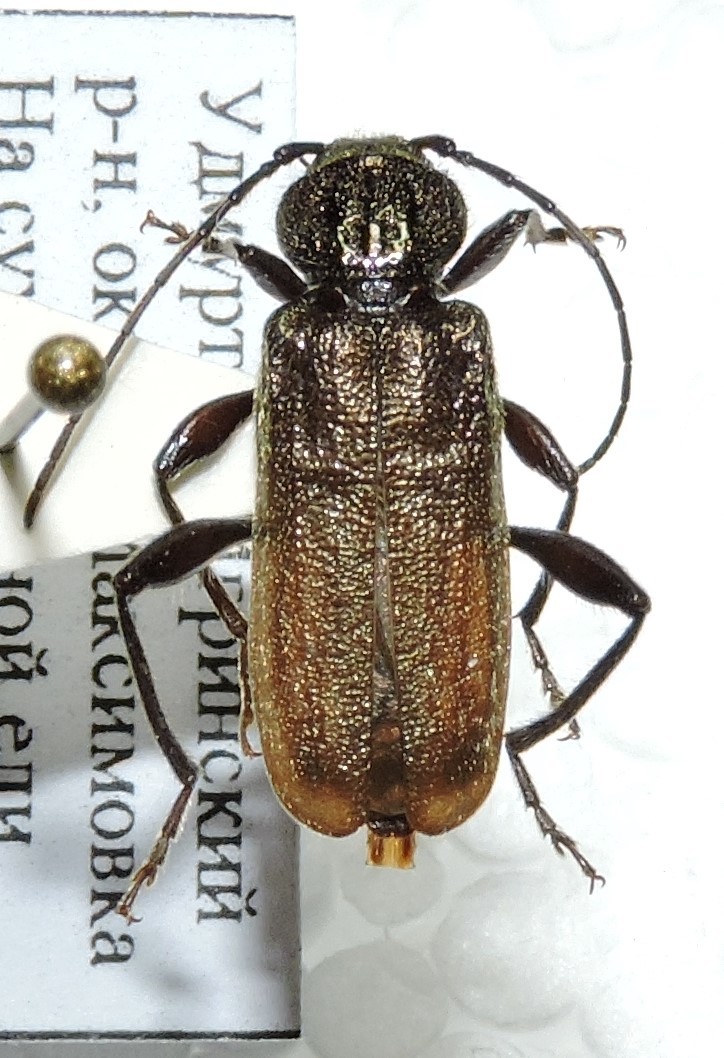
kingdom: Animalia
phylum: Arthropoda
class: Insecta
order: Coleoptera
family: Cerambycidae
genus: Callidium
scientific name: Callidium coriaceum
